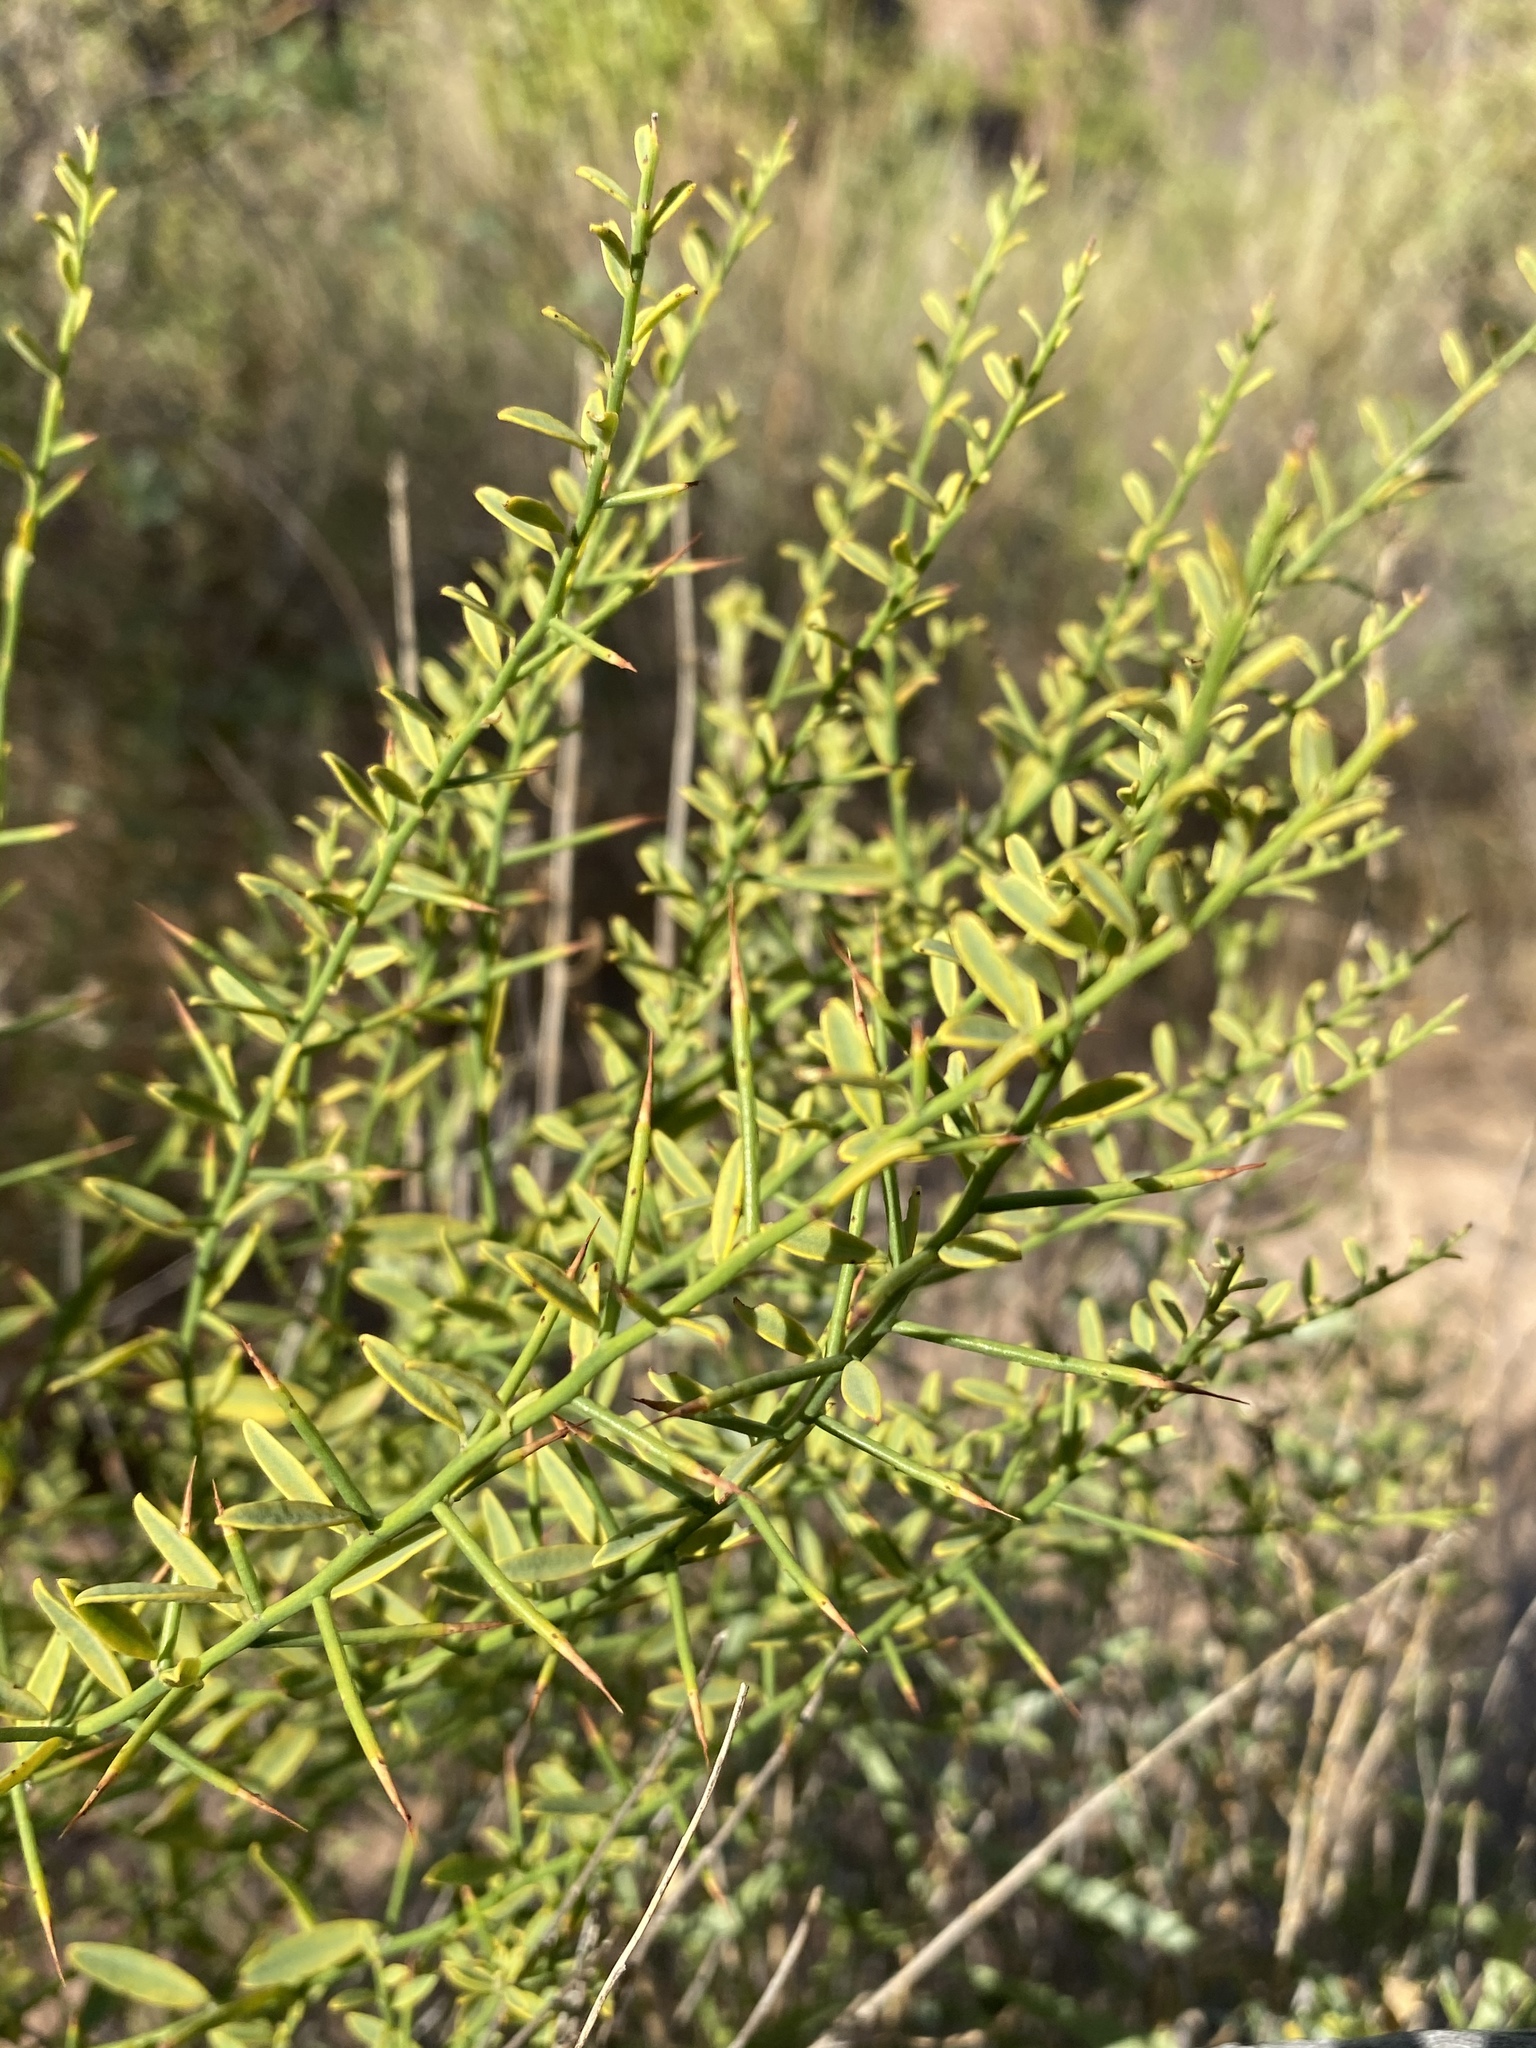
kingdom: Plantae
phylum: Tracheophyta
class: Magnoliopsida
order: Fabales
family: Fabaceae
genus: Alhagi
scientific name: Alhagi maurorum
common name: Camelthorn
